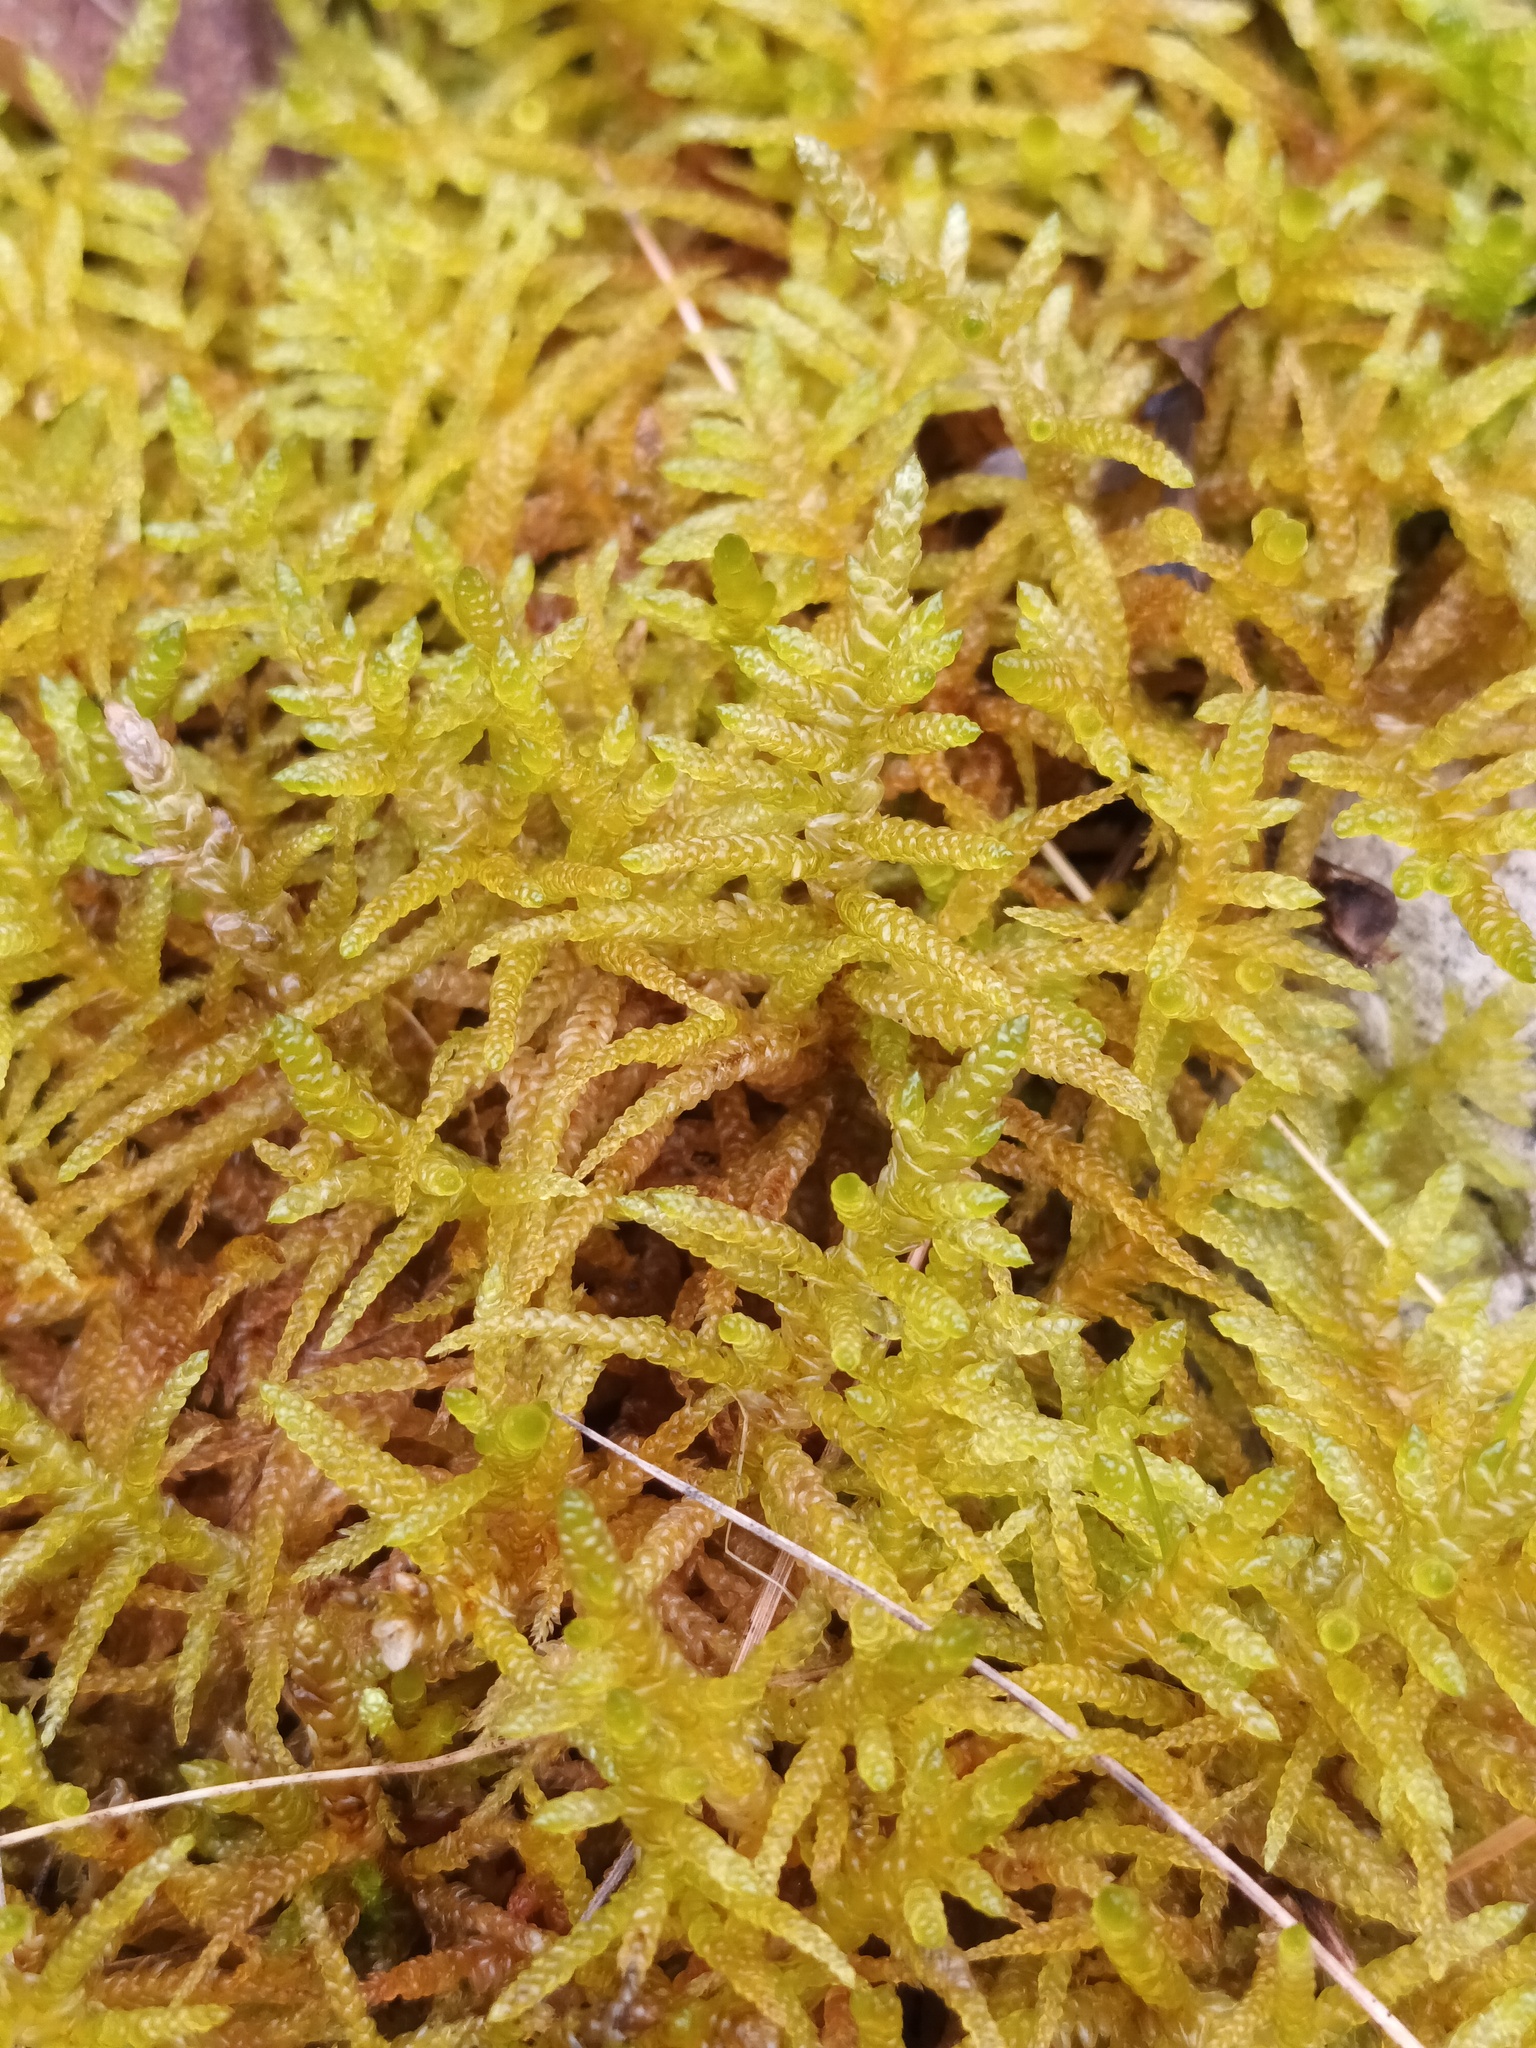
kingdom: Plantae
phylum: Bryophyta
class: Bryopsida
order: Hypnales
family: Brachytheciaceae
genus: Pseudoscleropodium
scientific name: Pseudoscleropodium purum
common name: Neat feather-moss
